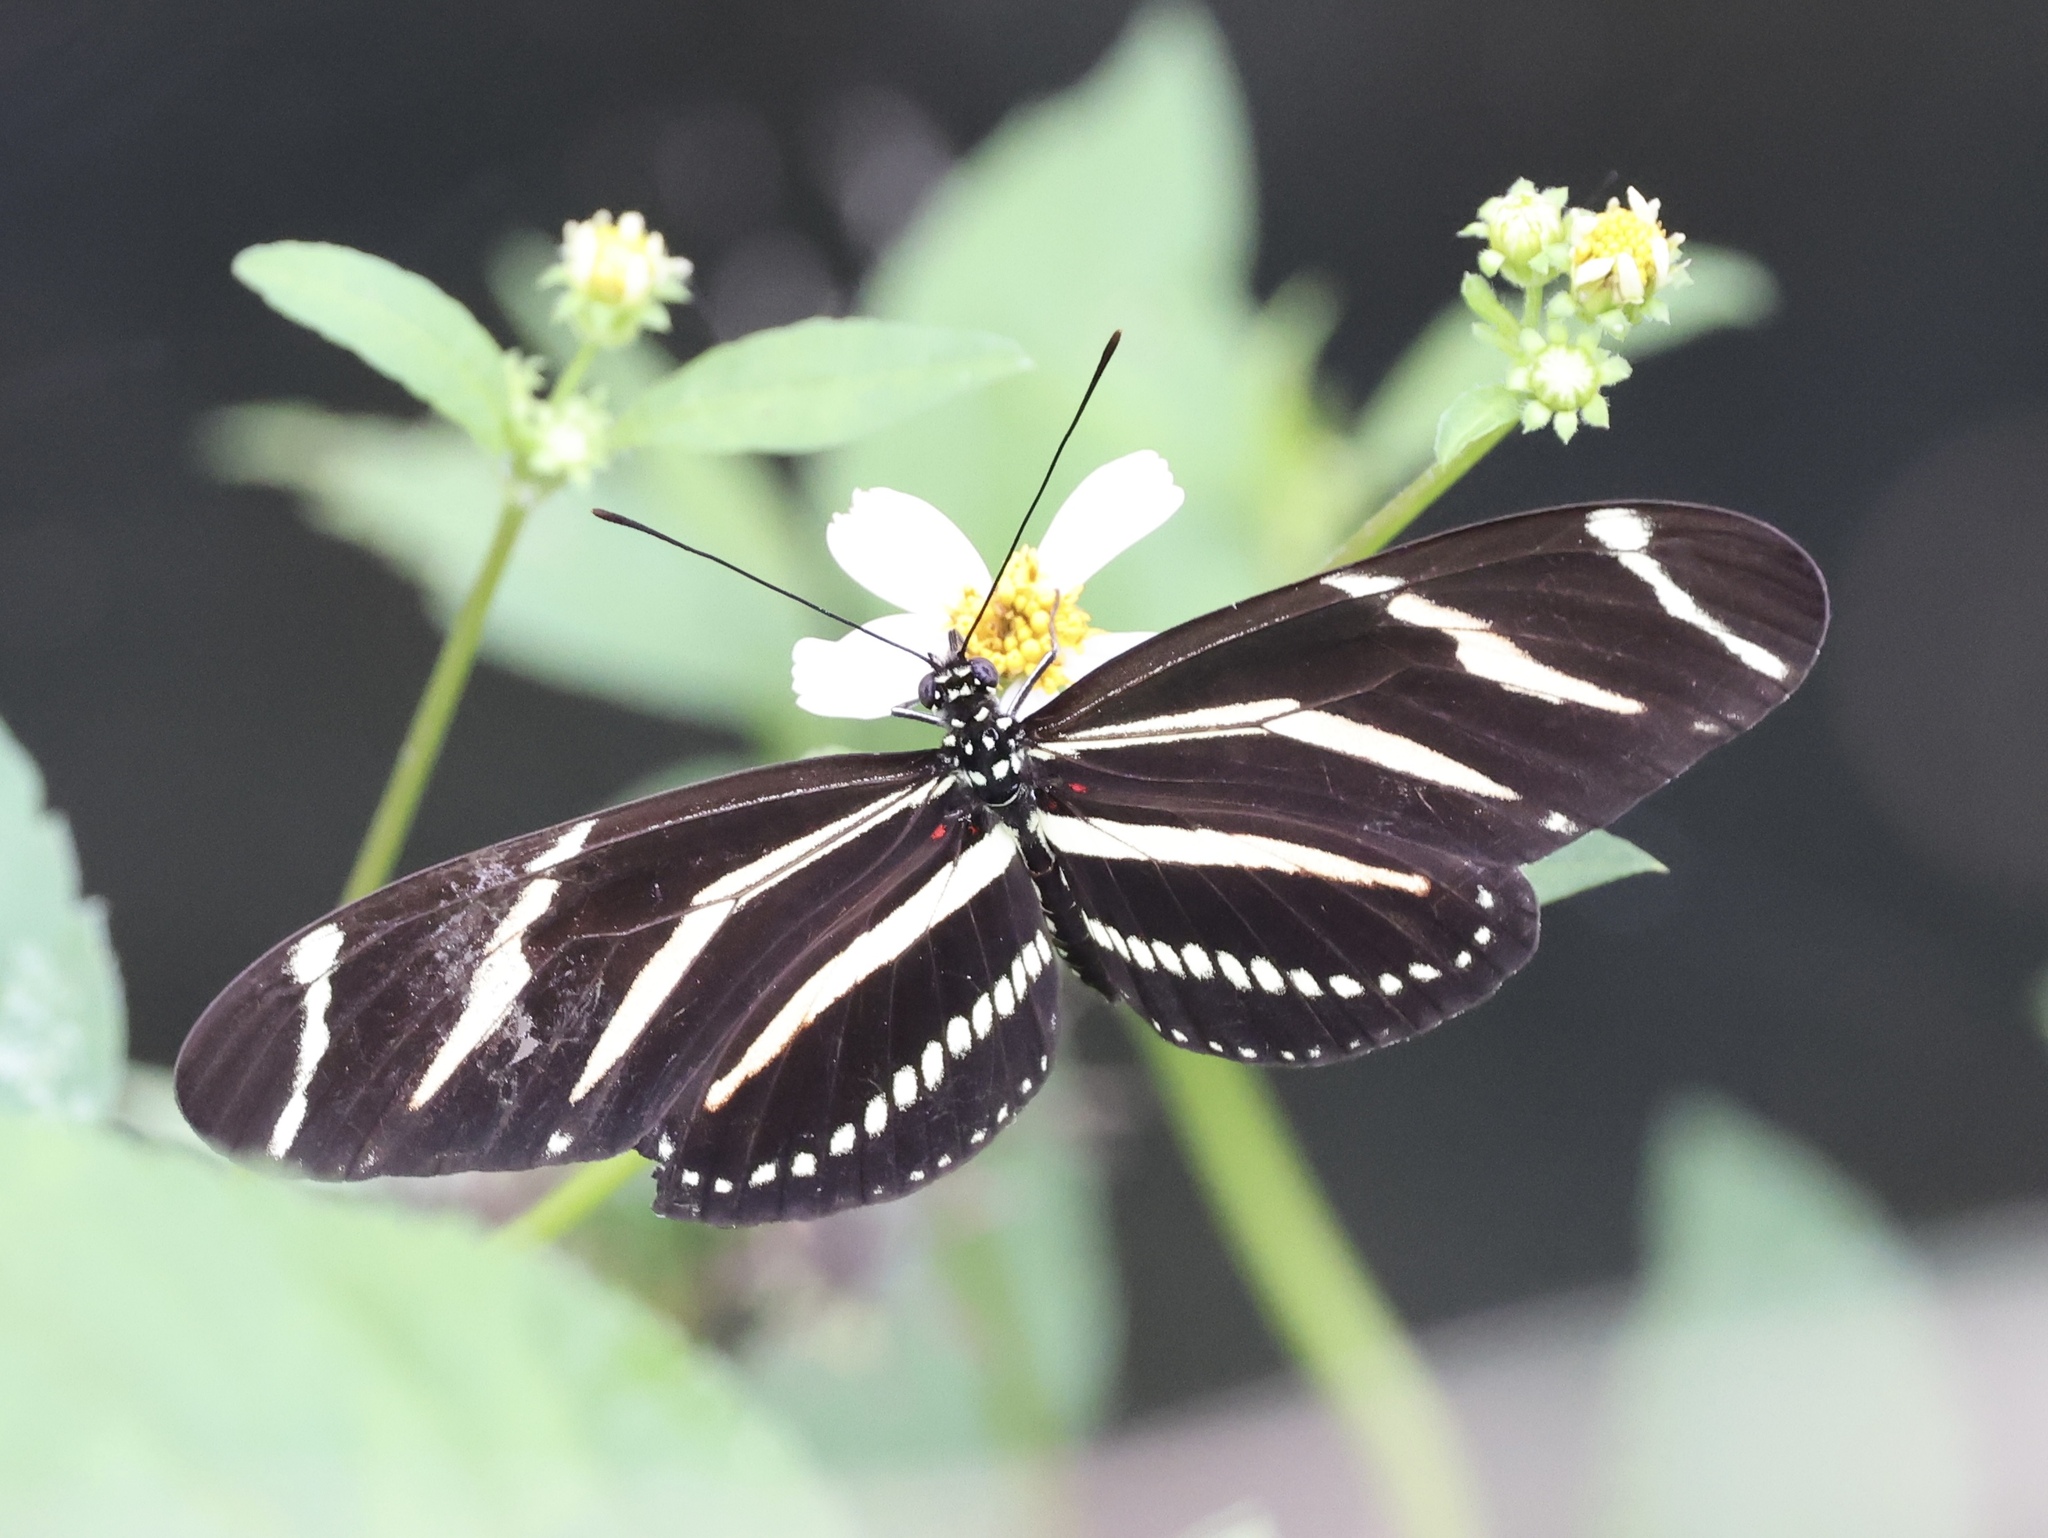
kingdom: Animalia
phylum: Arthropoda
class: Insecta
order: Lepidoptera
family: Nymphalidae
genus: Heliconius
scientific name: Heliconius charithonia
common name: Zebra long wing
